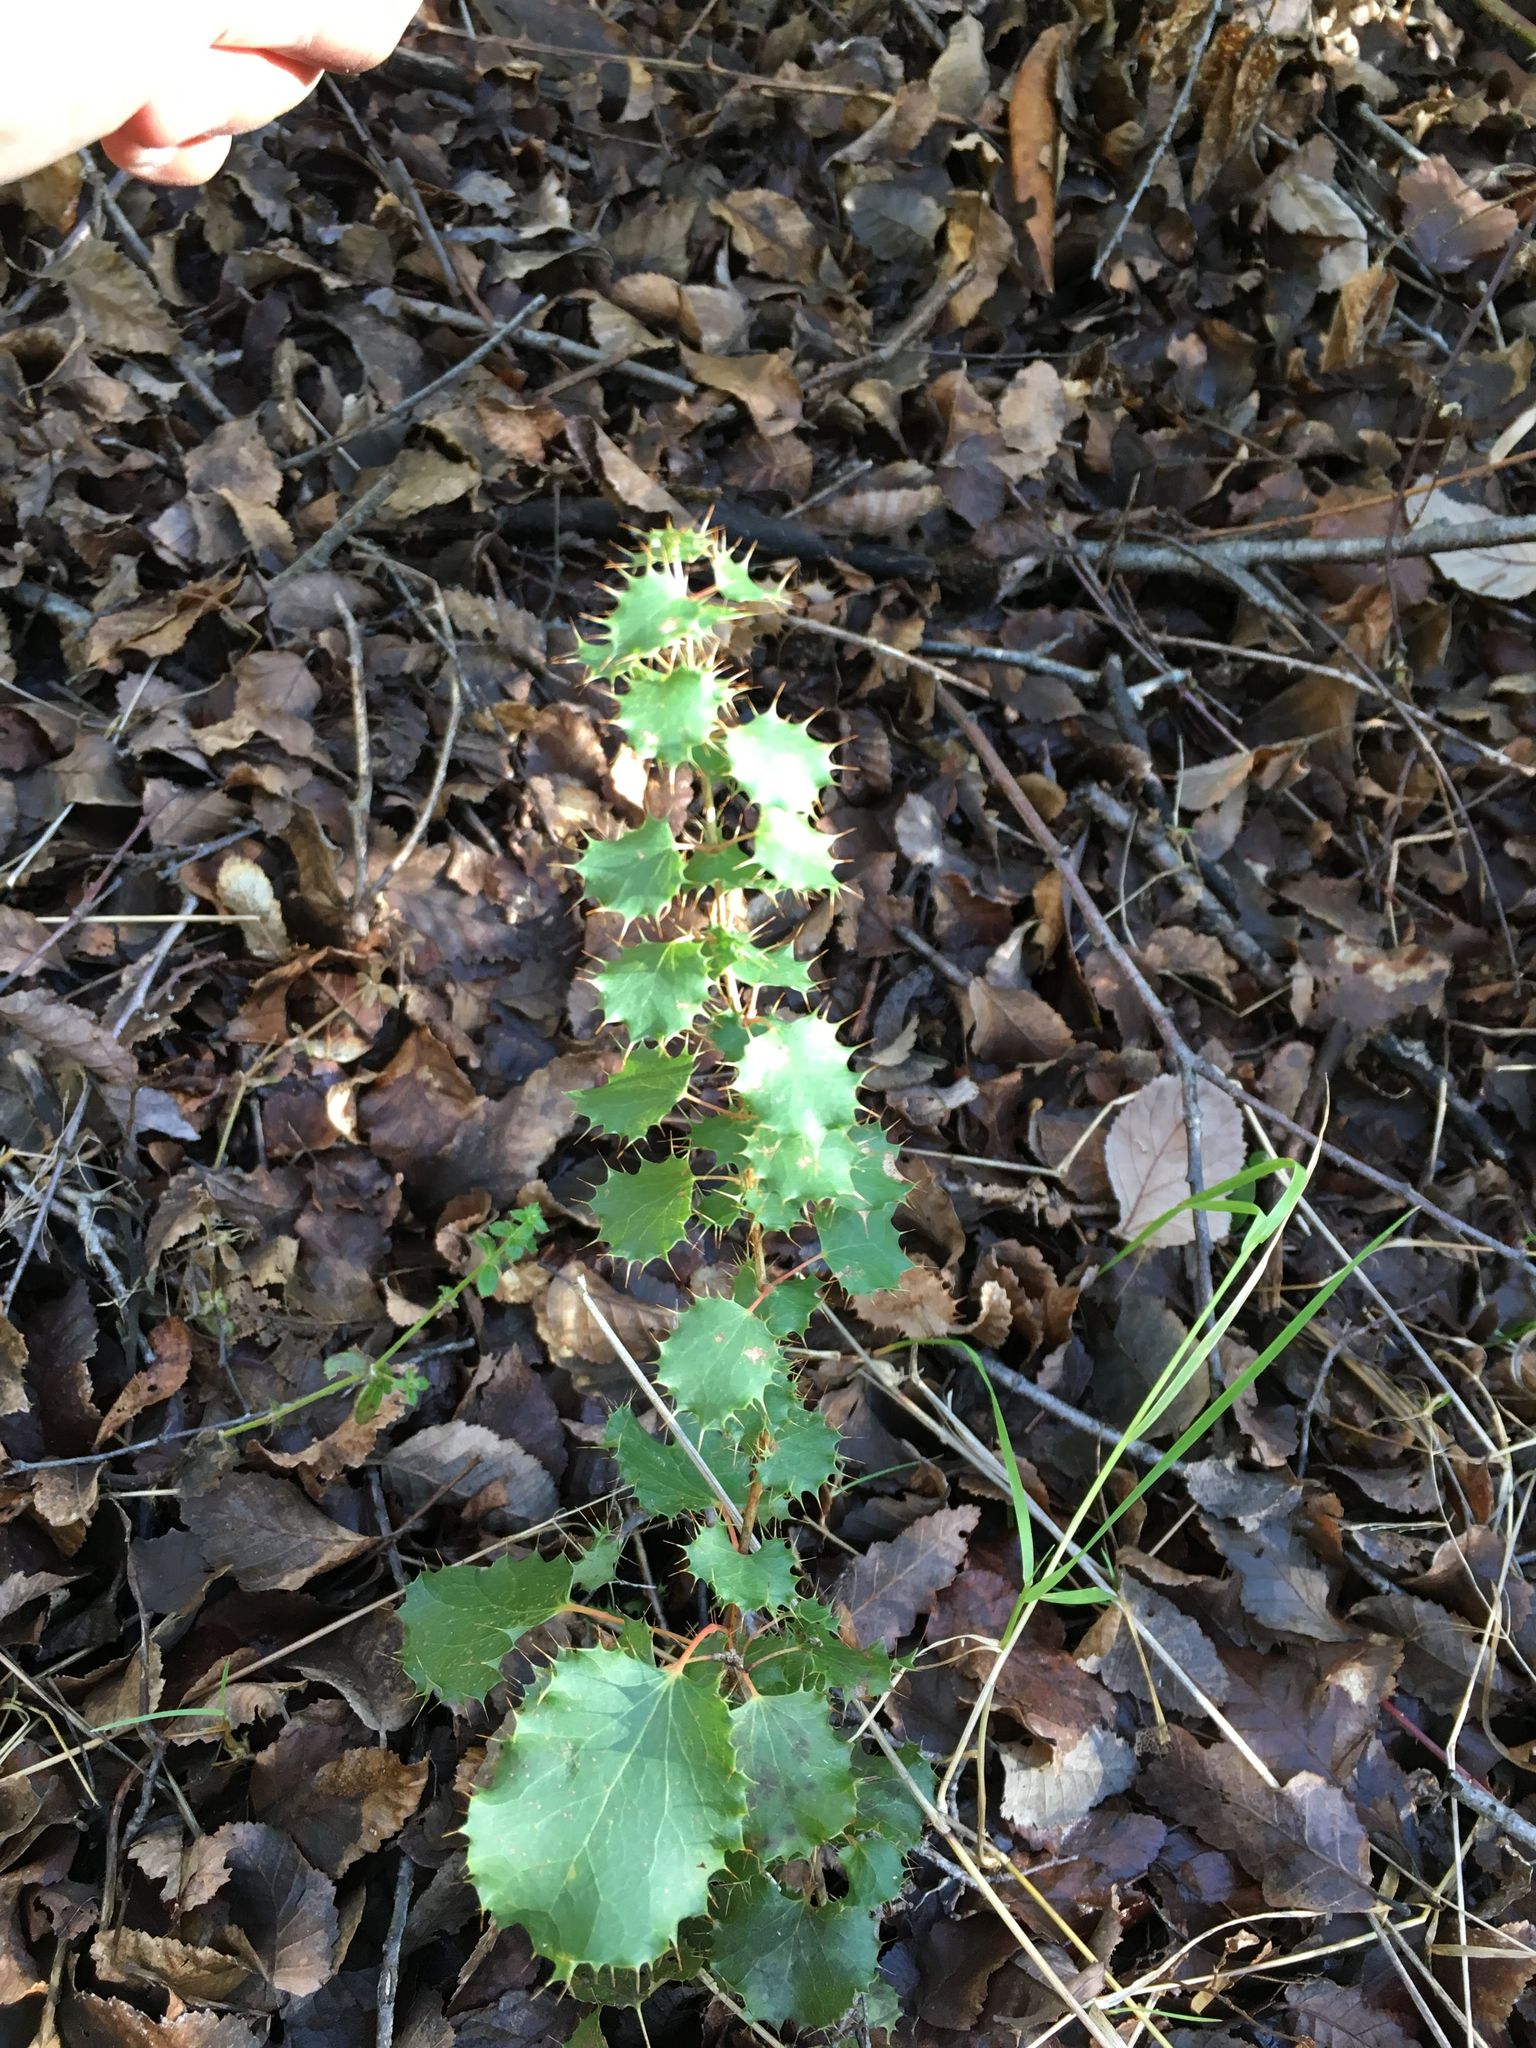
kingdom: Plantae
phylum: Tracheophyta
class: Magnoliopsida
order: Ranunculales
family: Berberidaceae
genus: Berberis
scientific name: Berberis actinacantha
